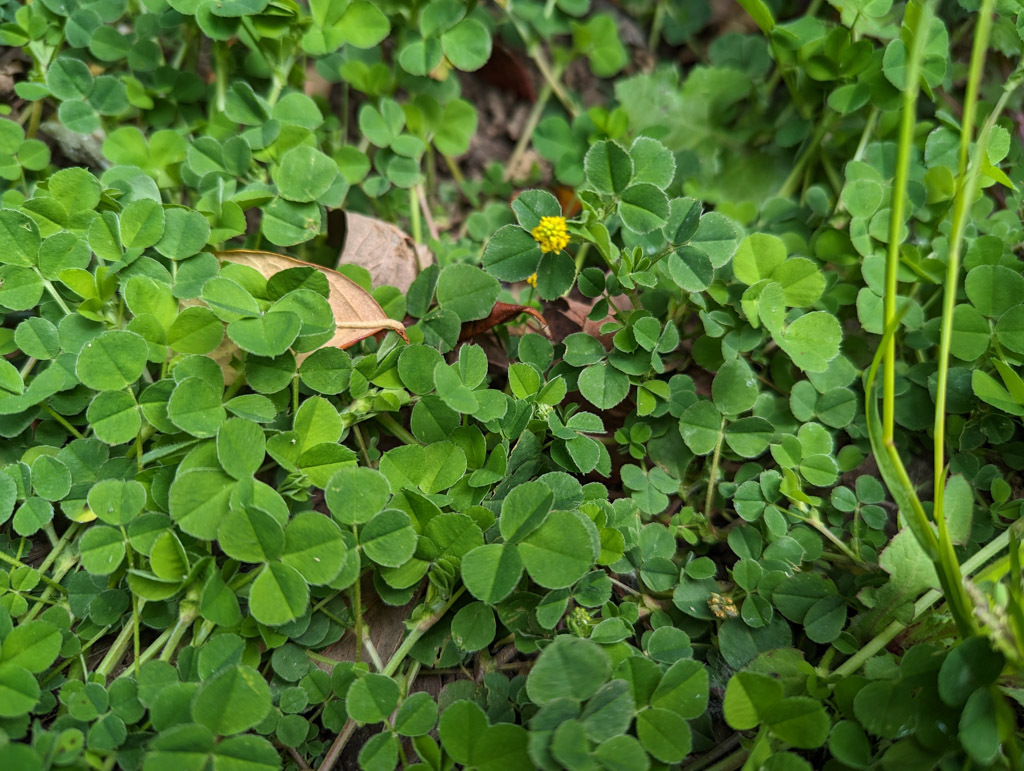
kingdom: Plantae
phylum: Tracheophyta
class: Magnoliopsida
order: Fabales
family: Fabaceae
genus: Medicago
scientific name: Medicago lupulina
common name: Black medick
